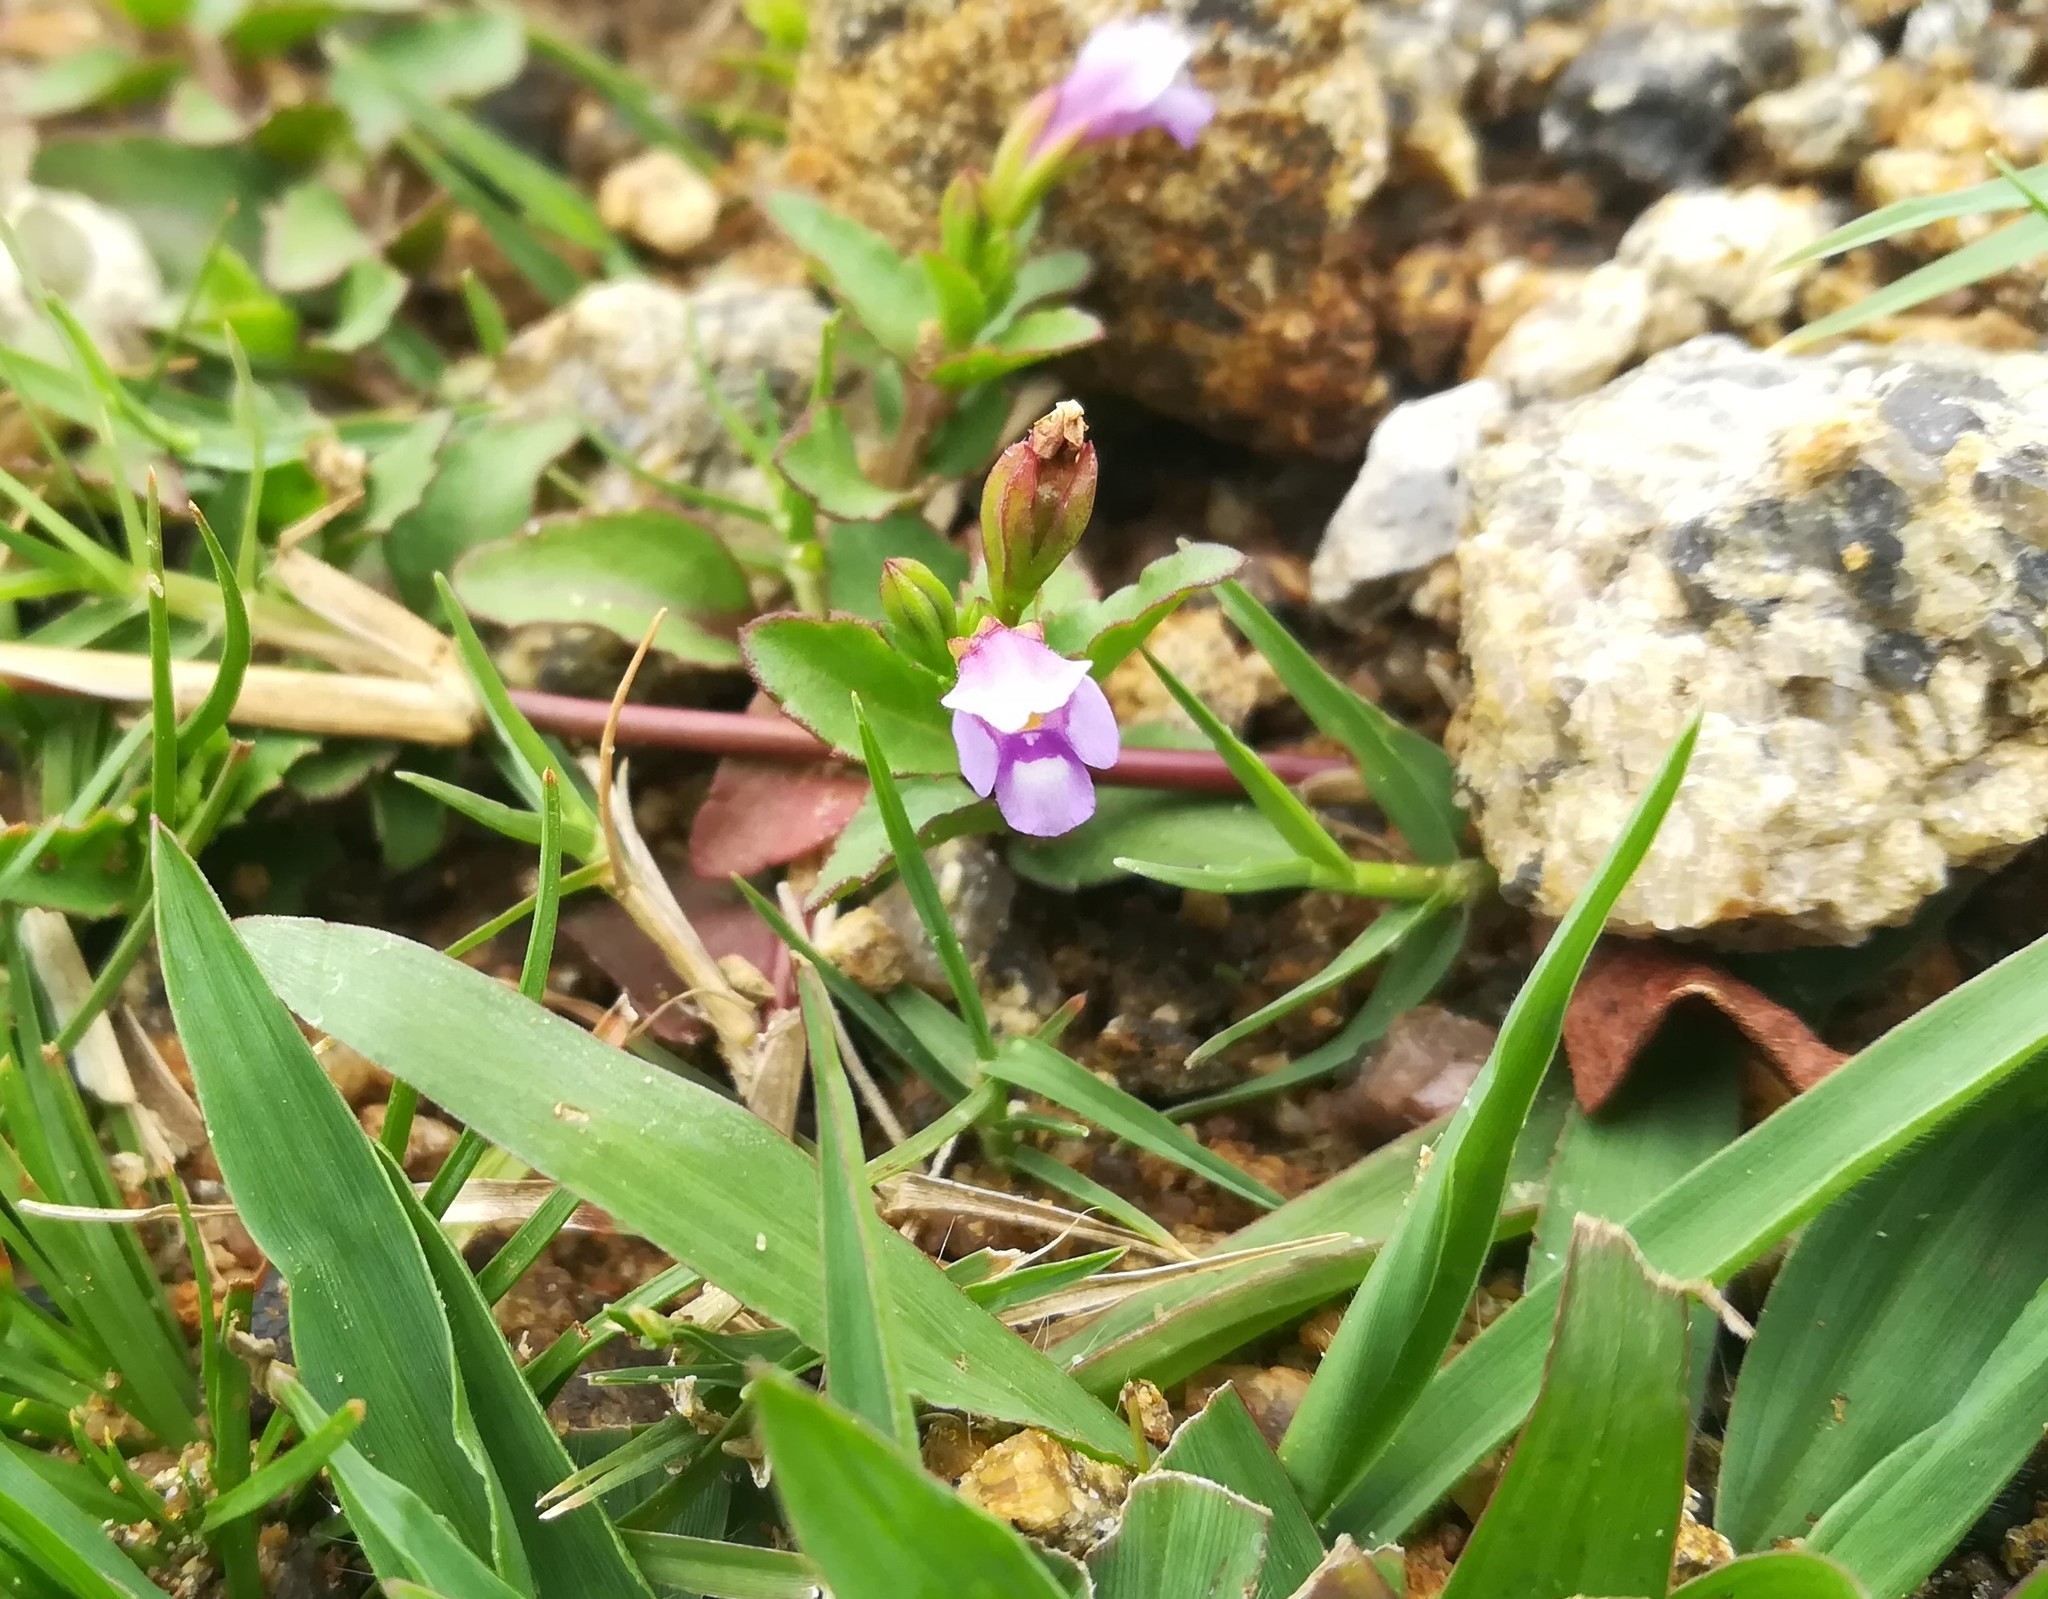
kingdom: Plantae
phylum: Tracheophyta
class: Magnoliopsida
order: Lamiales
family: Linderniaceae
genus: Torenia
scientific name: Torenia crustacea
